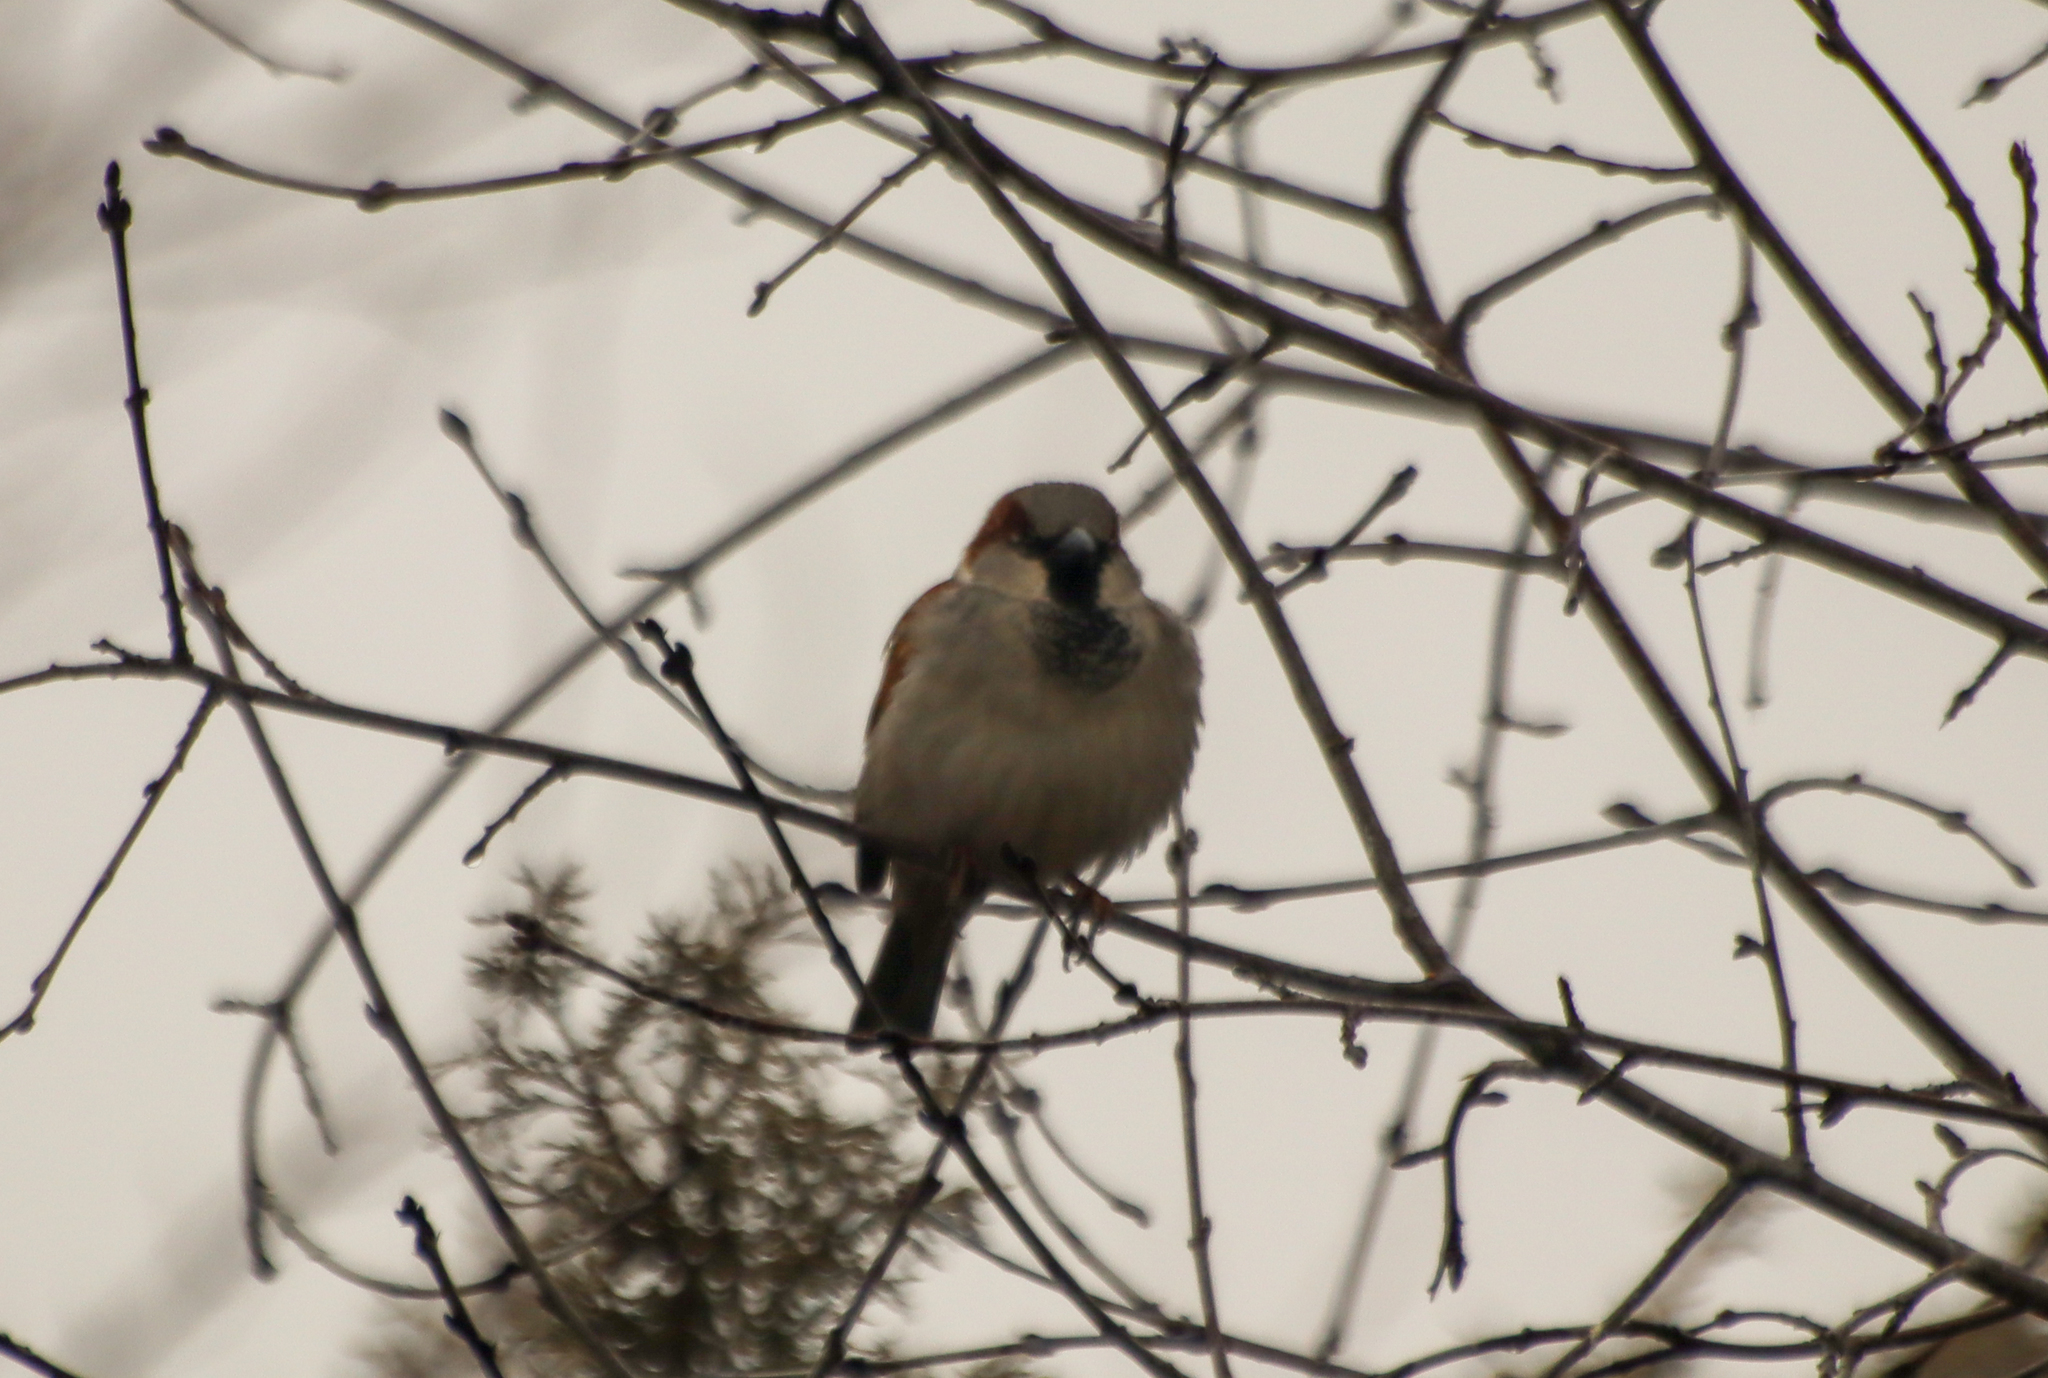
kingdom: Animalia
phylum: Chordata
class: Aves
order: Passeriformes
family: Passeridae
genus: Passer
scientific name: Passer domesticus
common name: House sparrow
